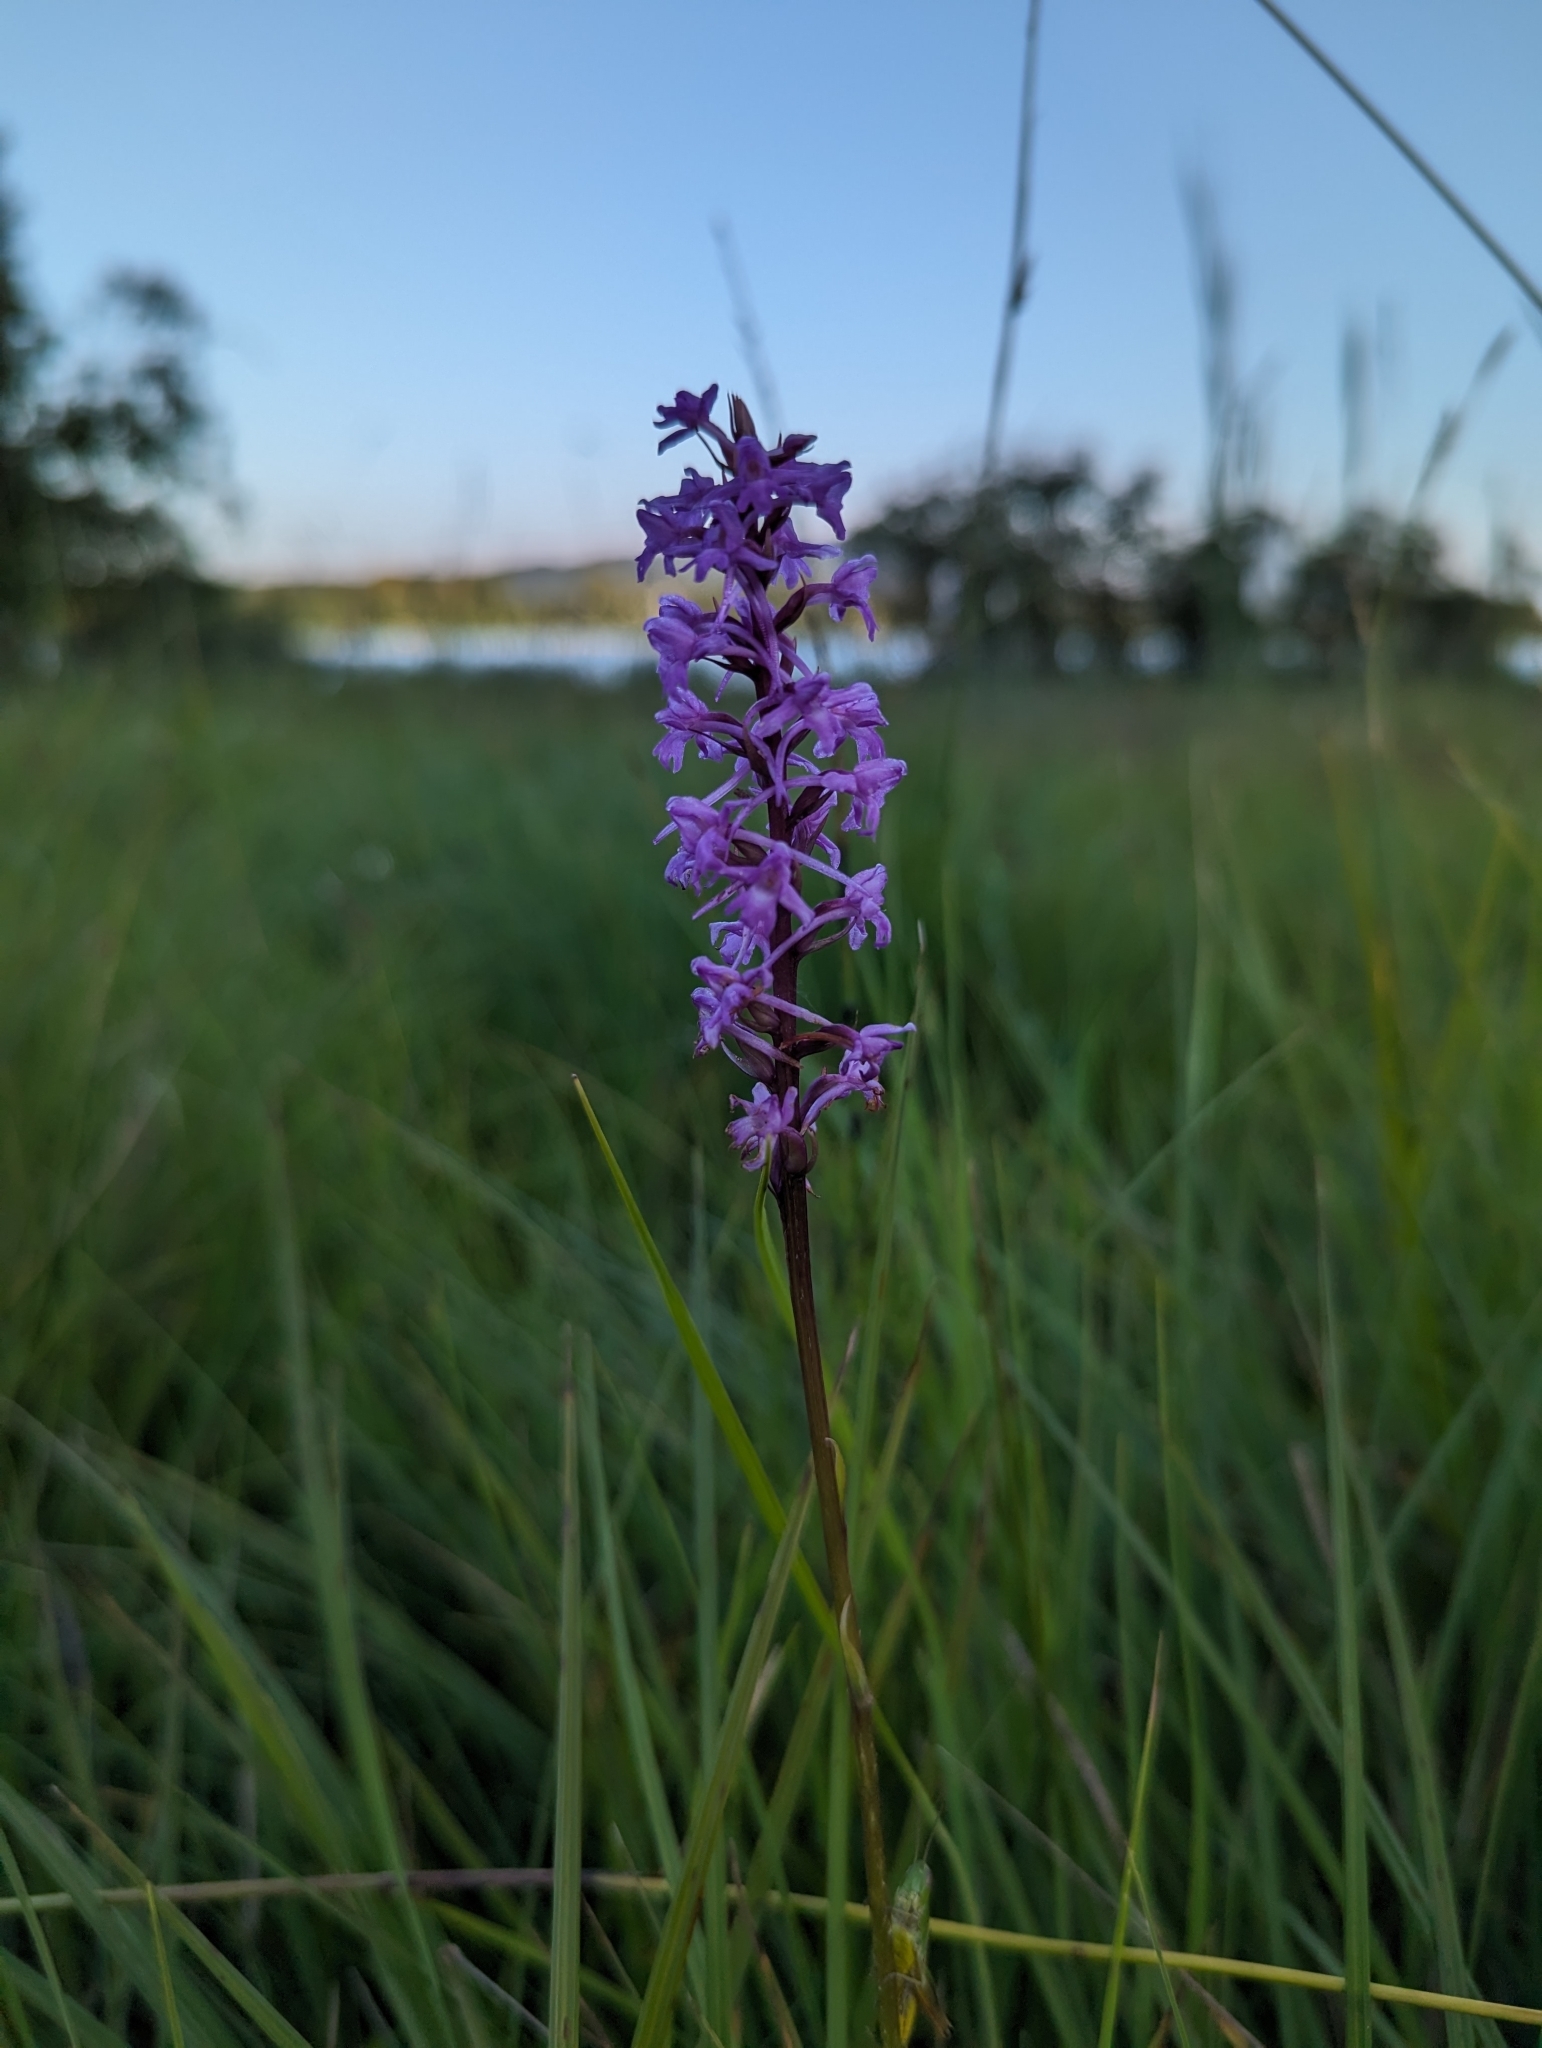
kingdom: Plantae
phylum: Tracheophyta
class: Liliopsida
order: Asparagales
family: Orchidaceae
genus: Gymnadenia
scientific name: Gymnadenia conopsea
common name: Fragrant orchid
